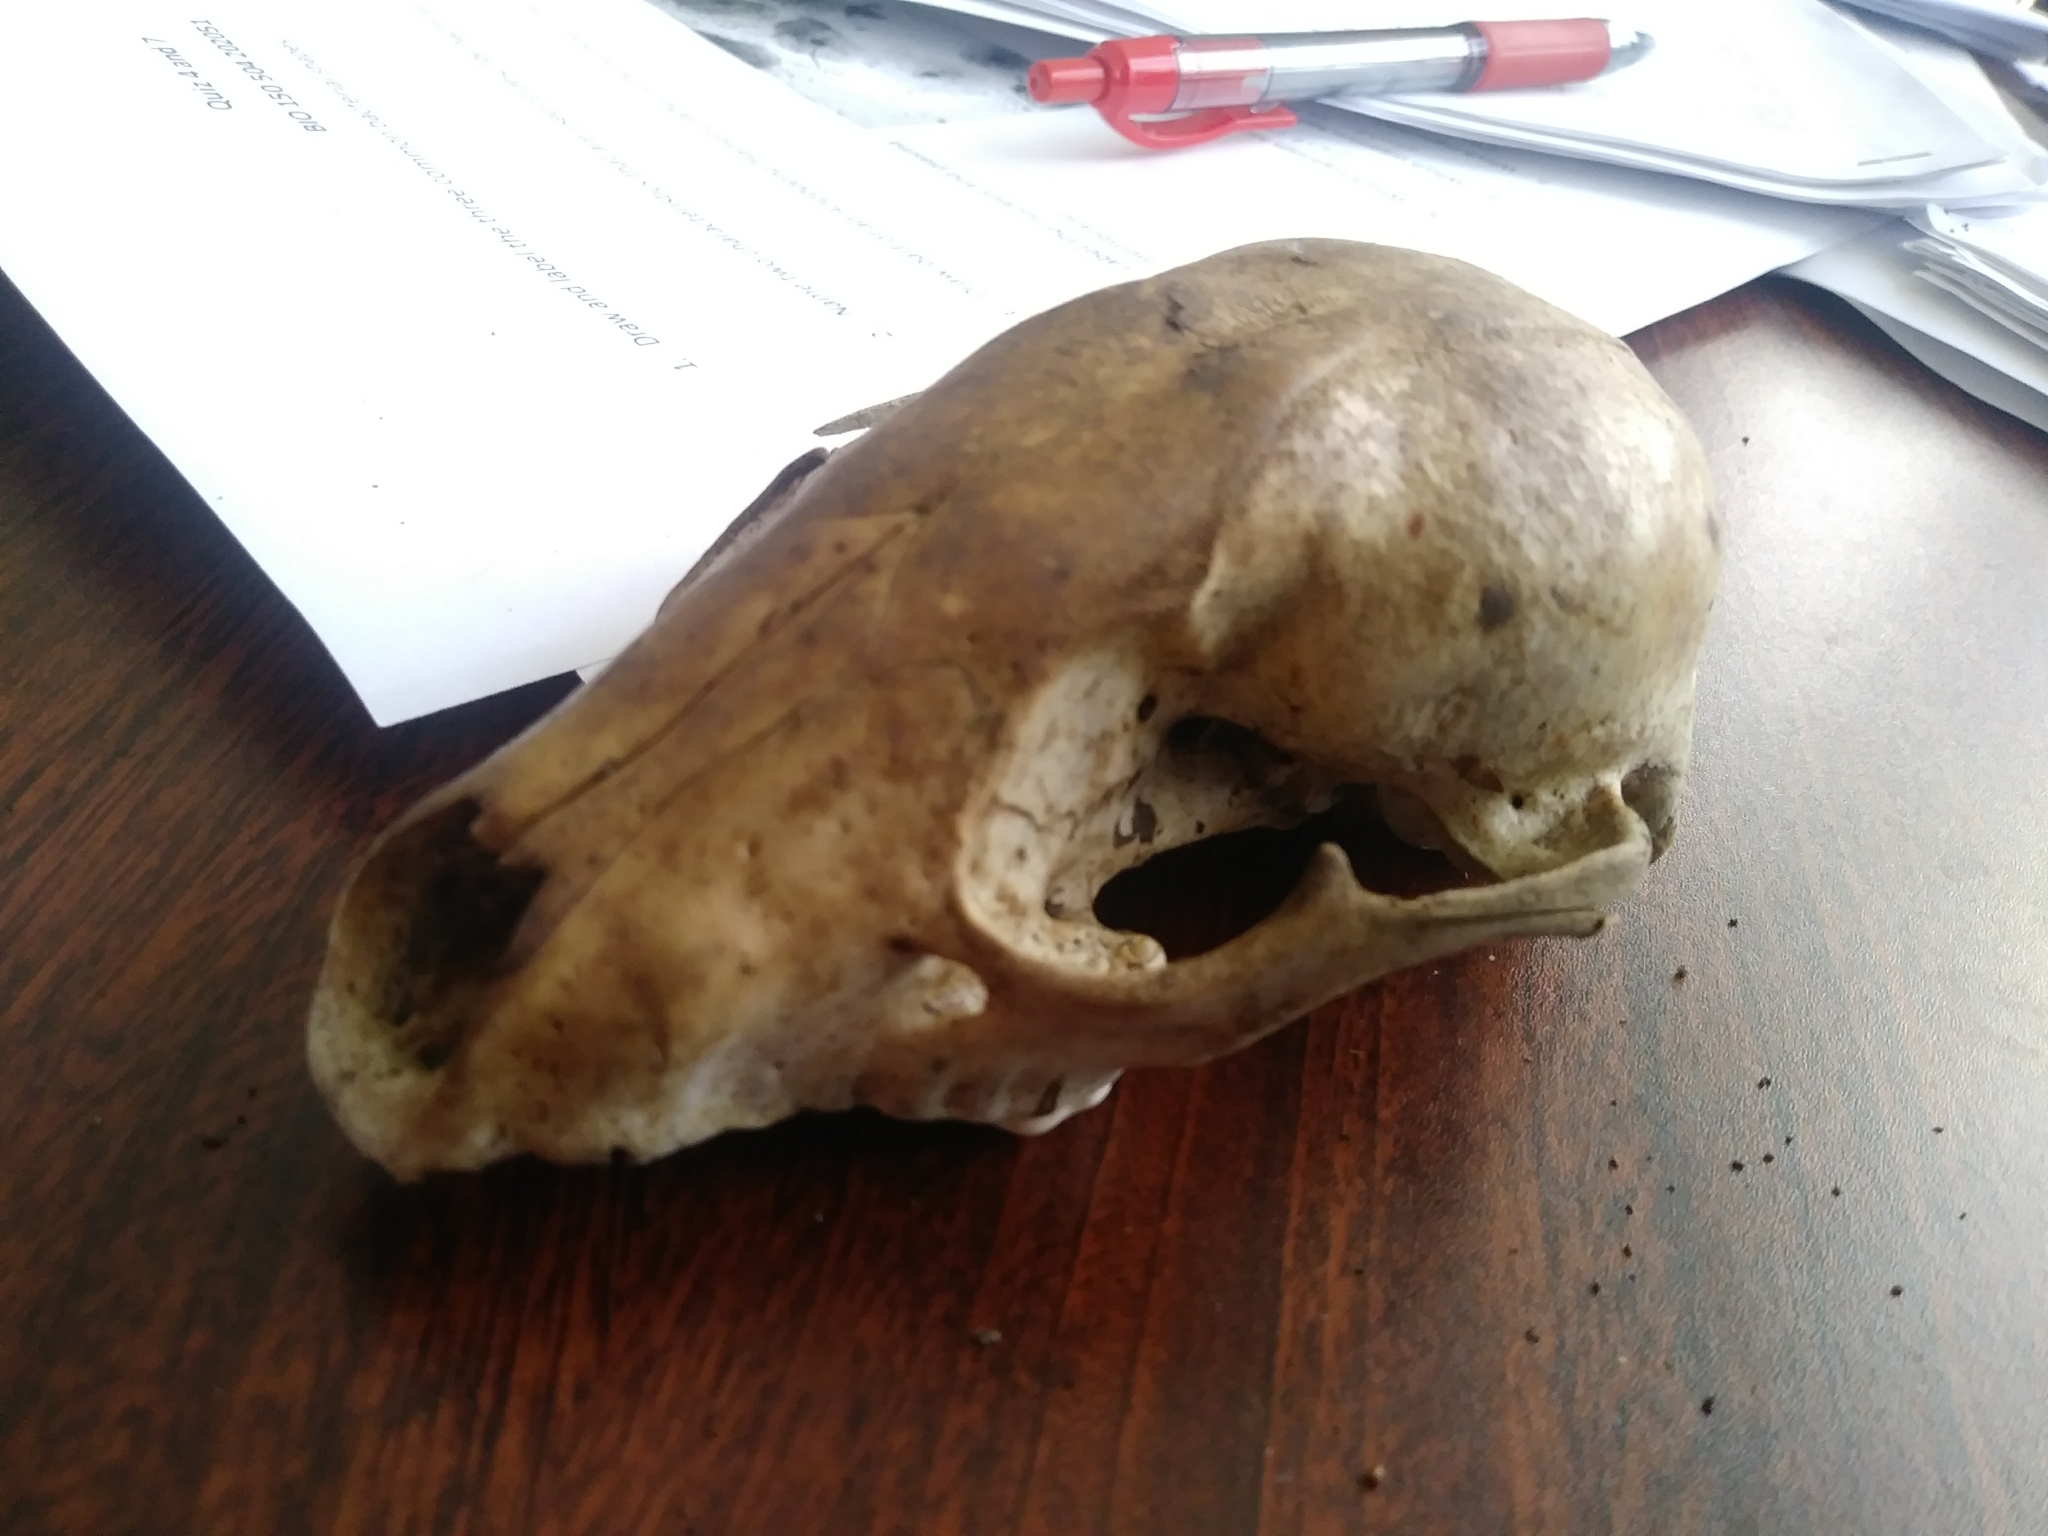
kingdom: Animalia
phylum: Chordata
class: Mammalia
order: Carnivora
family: Procyonidae
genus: Procyon
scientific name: Procyon lotor
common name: Raccoon
